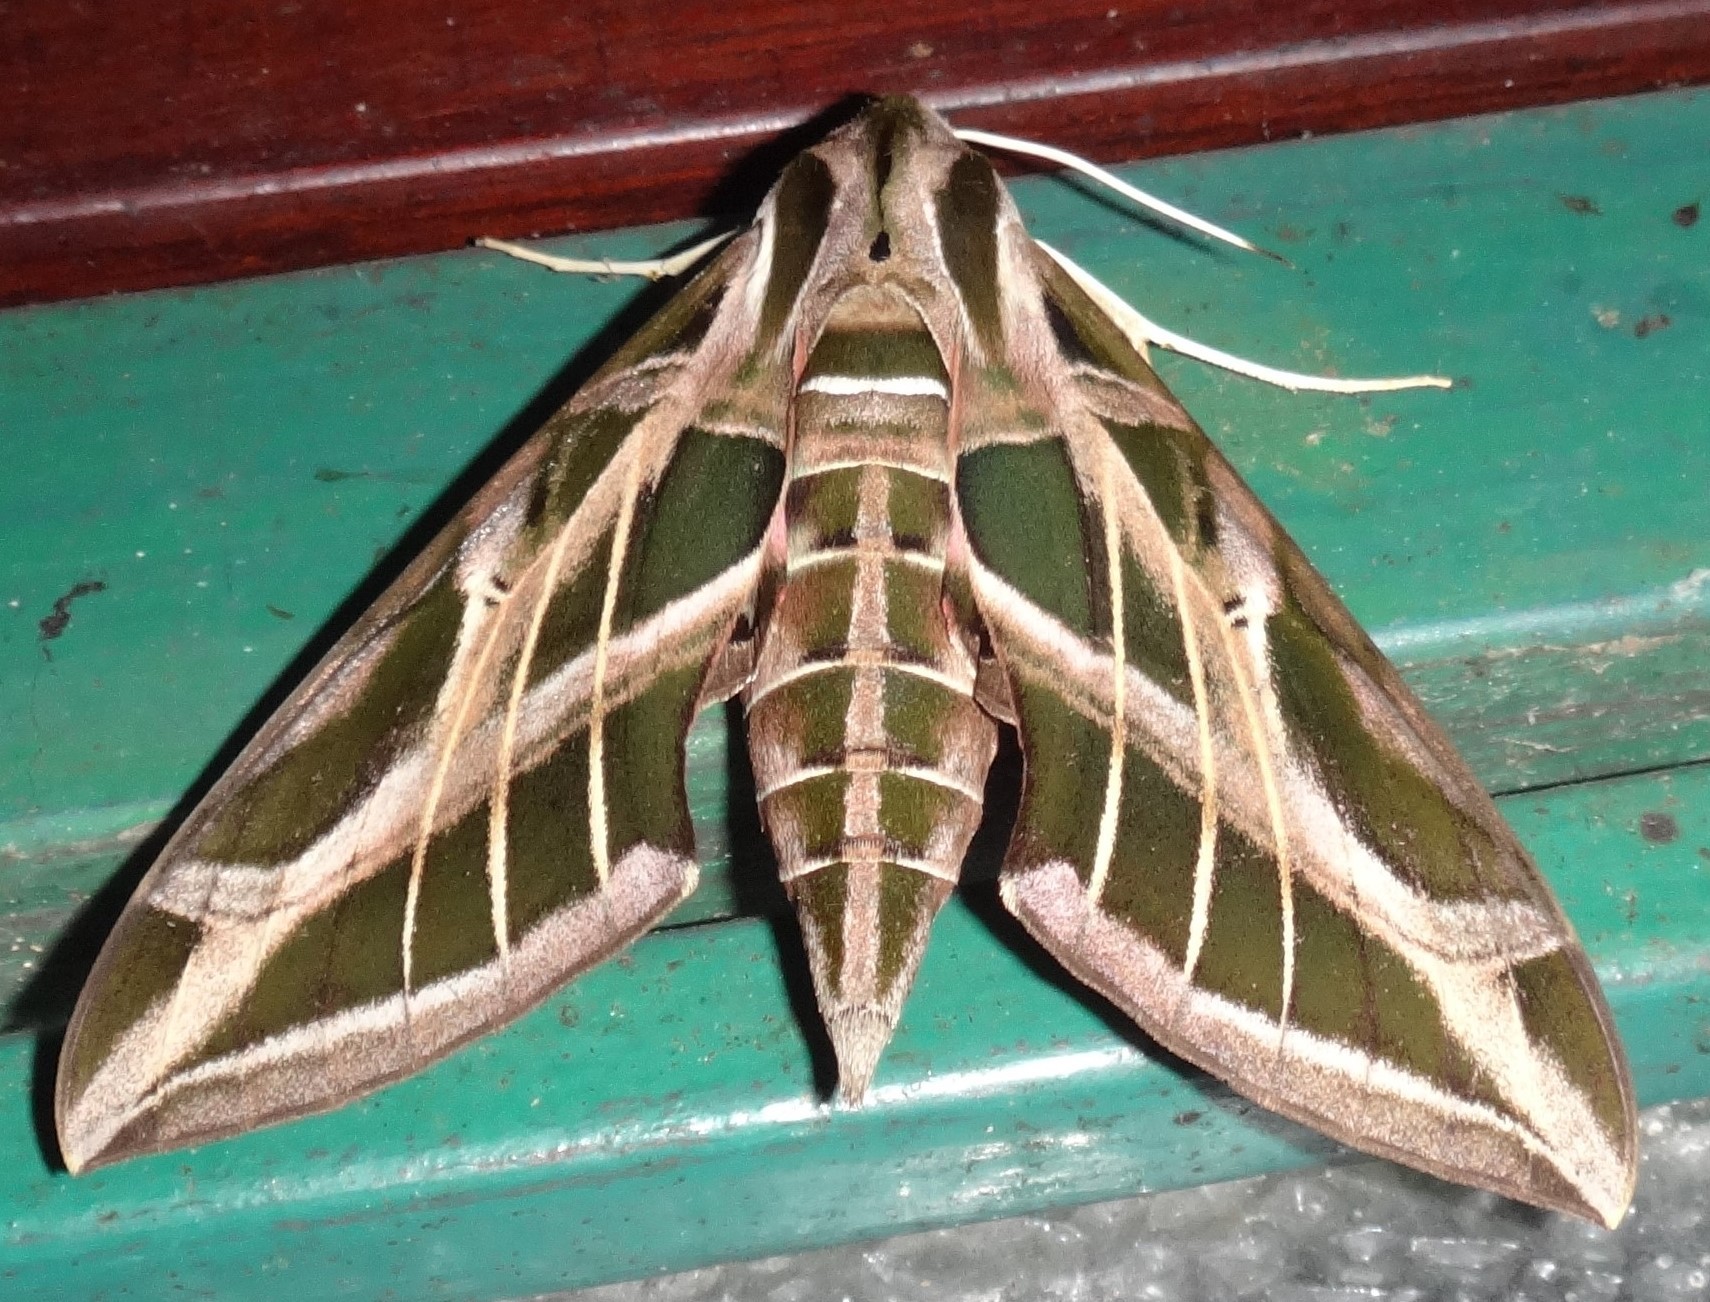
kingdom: Animalia
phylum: Arthropoda
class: Insecta
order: Lepidoptera
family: Sphingidae
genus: Eumorpha
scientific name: Eumorpha vitis
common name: Vine sphinx
